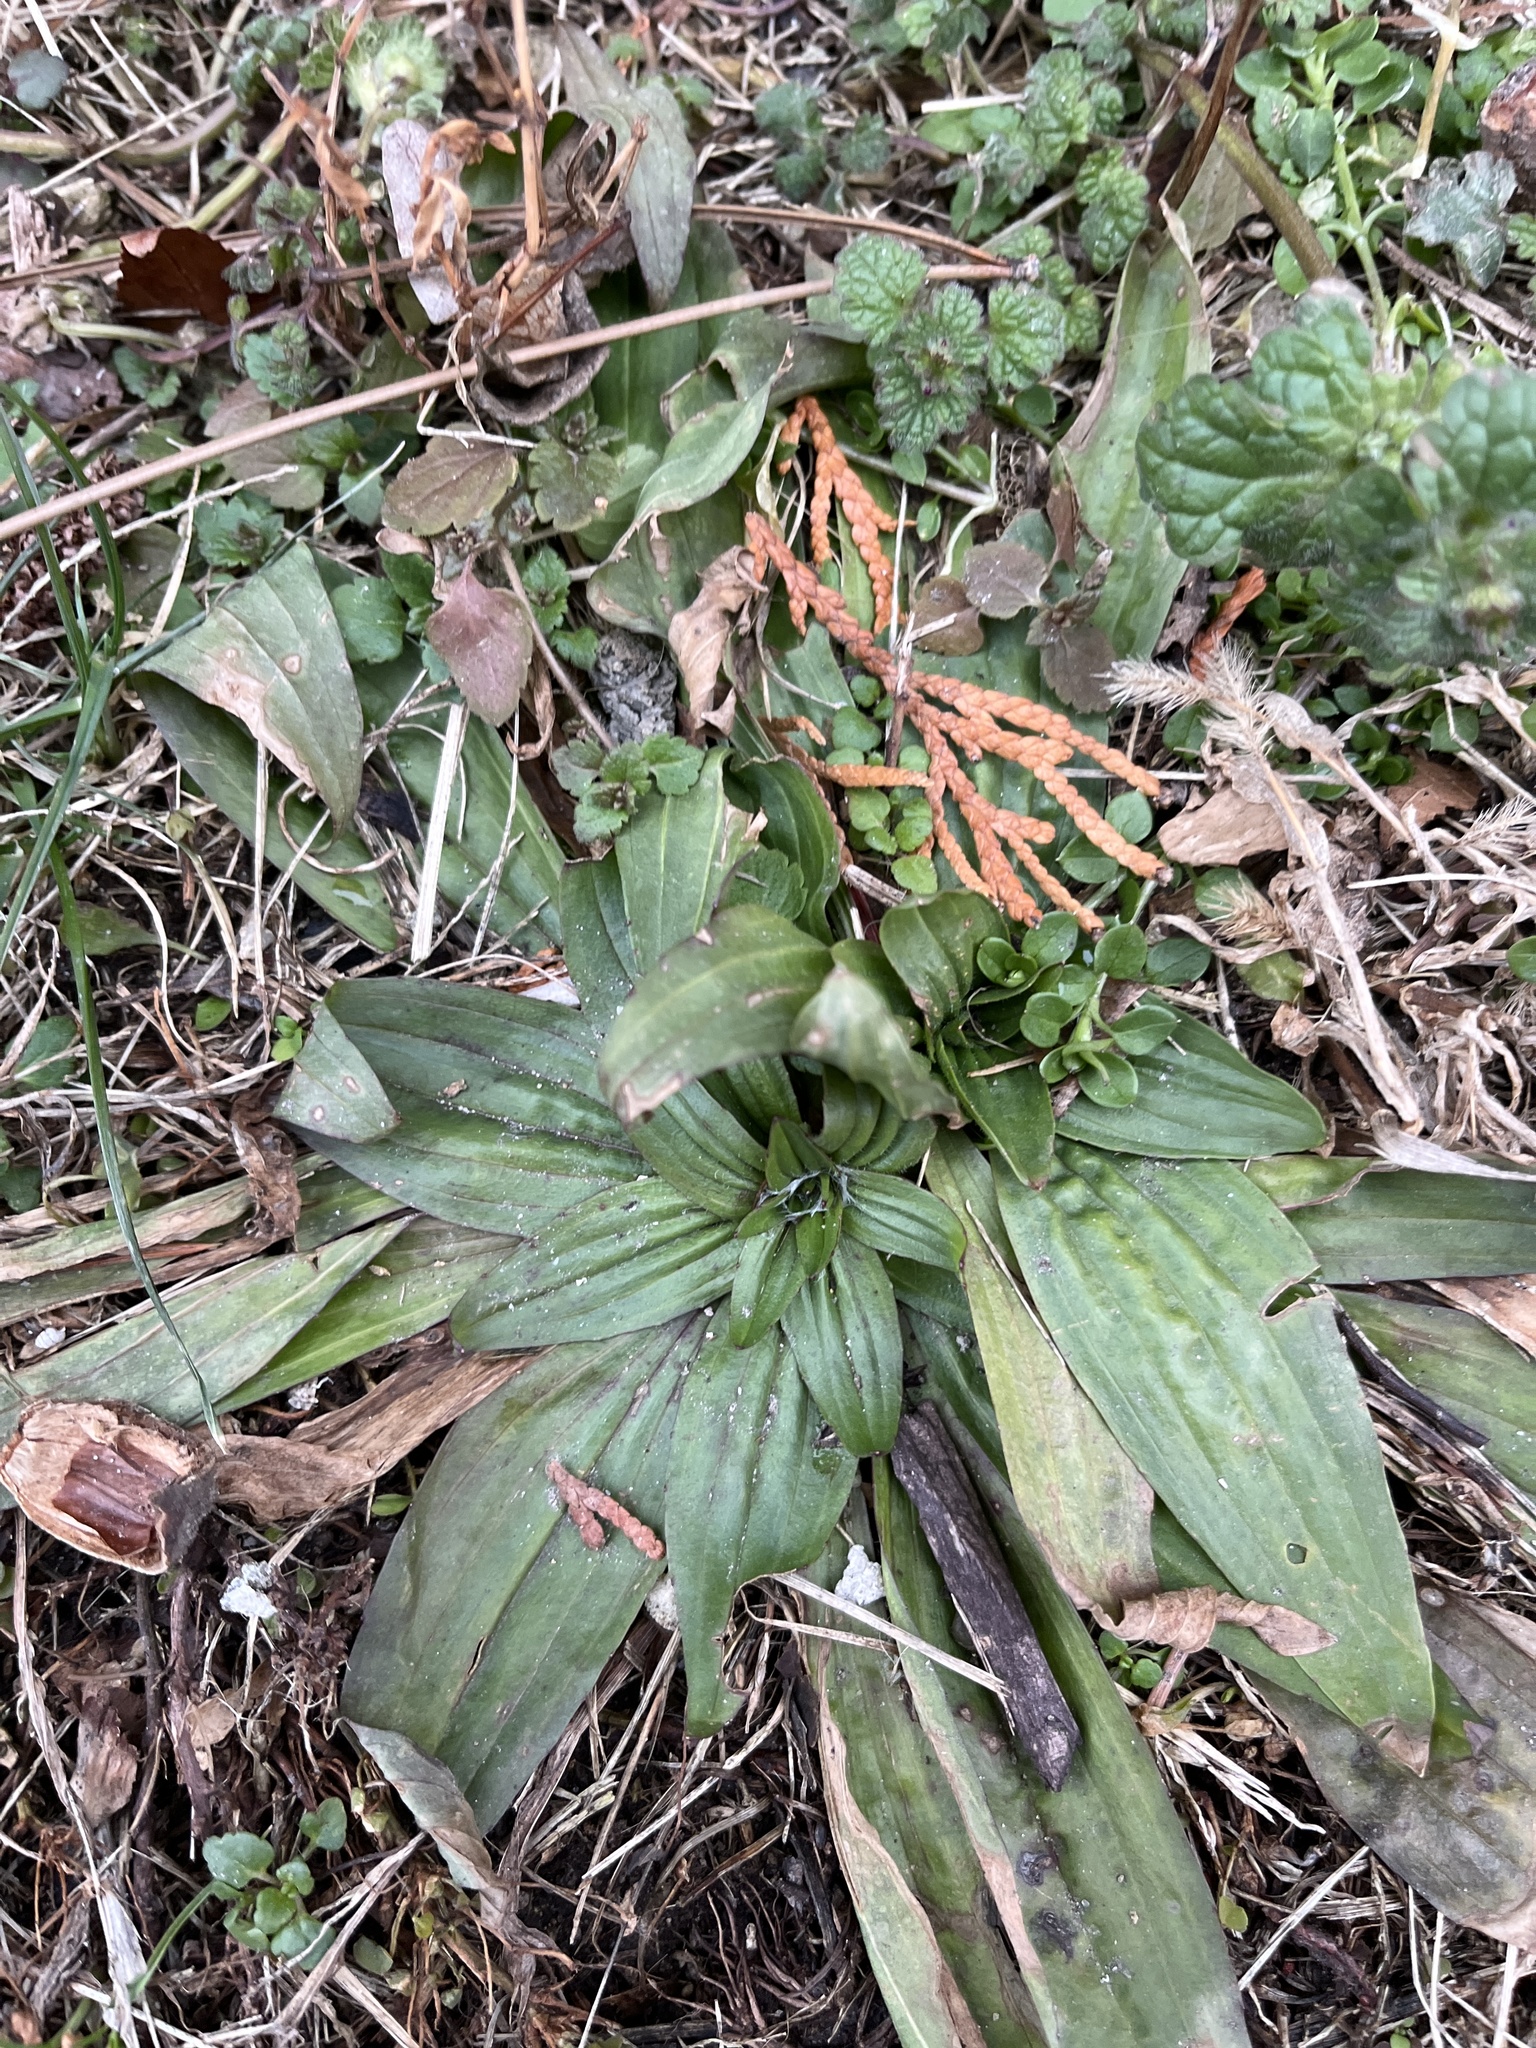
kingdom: Plantae
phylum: Tracheophyta
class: Magnoliopsida
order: Lamiales
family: Plantaginaceae
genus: Plantago
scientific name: Plantago lanceolata
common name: Ribwort plantain
